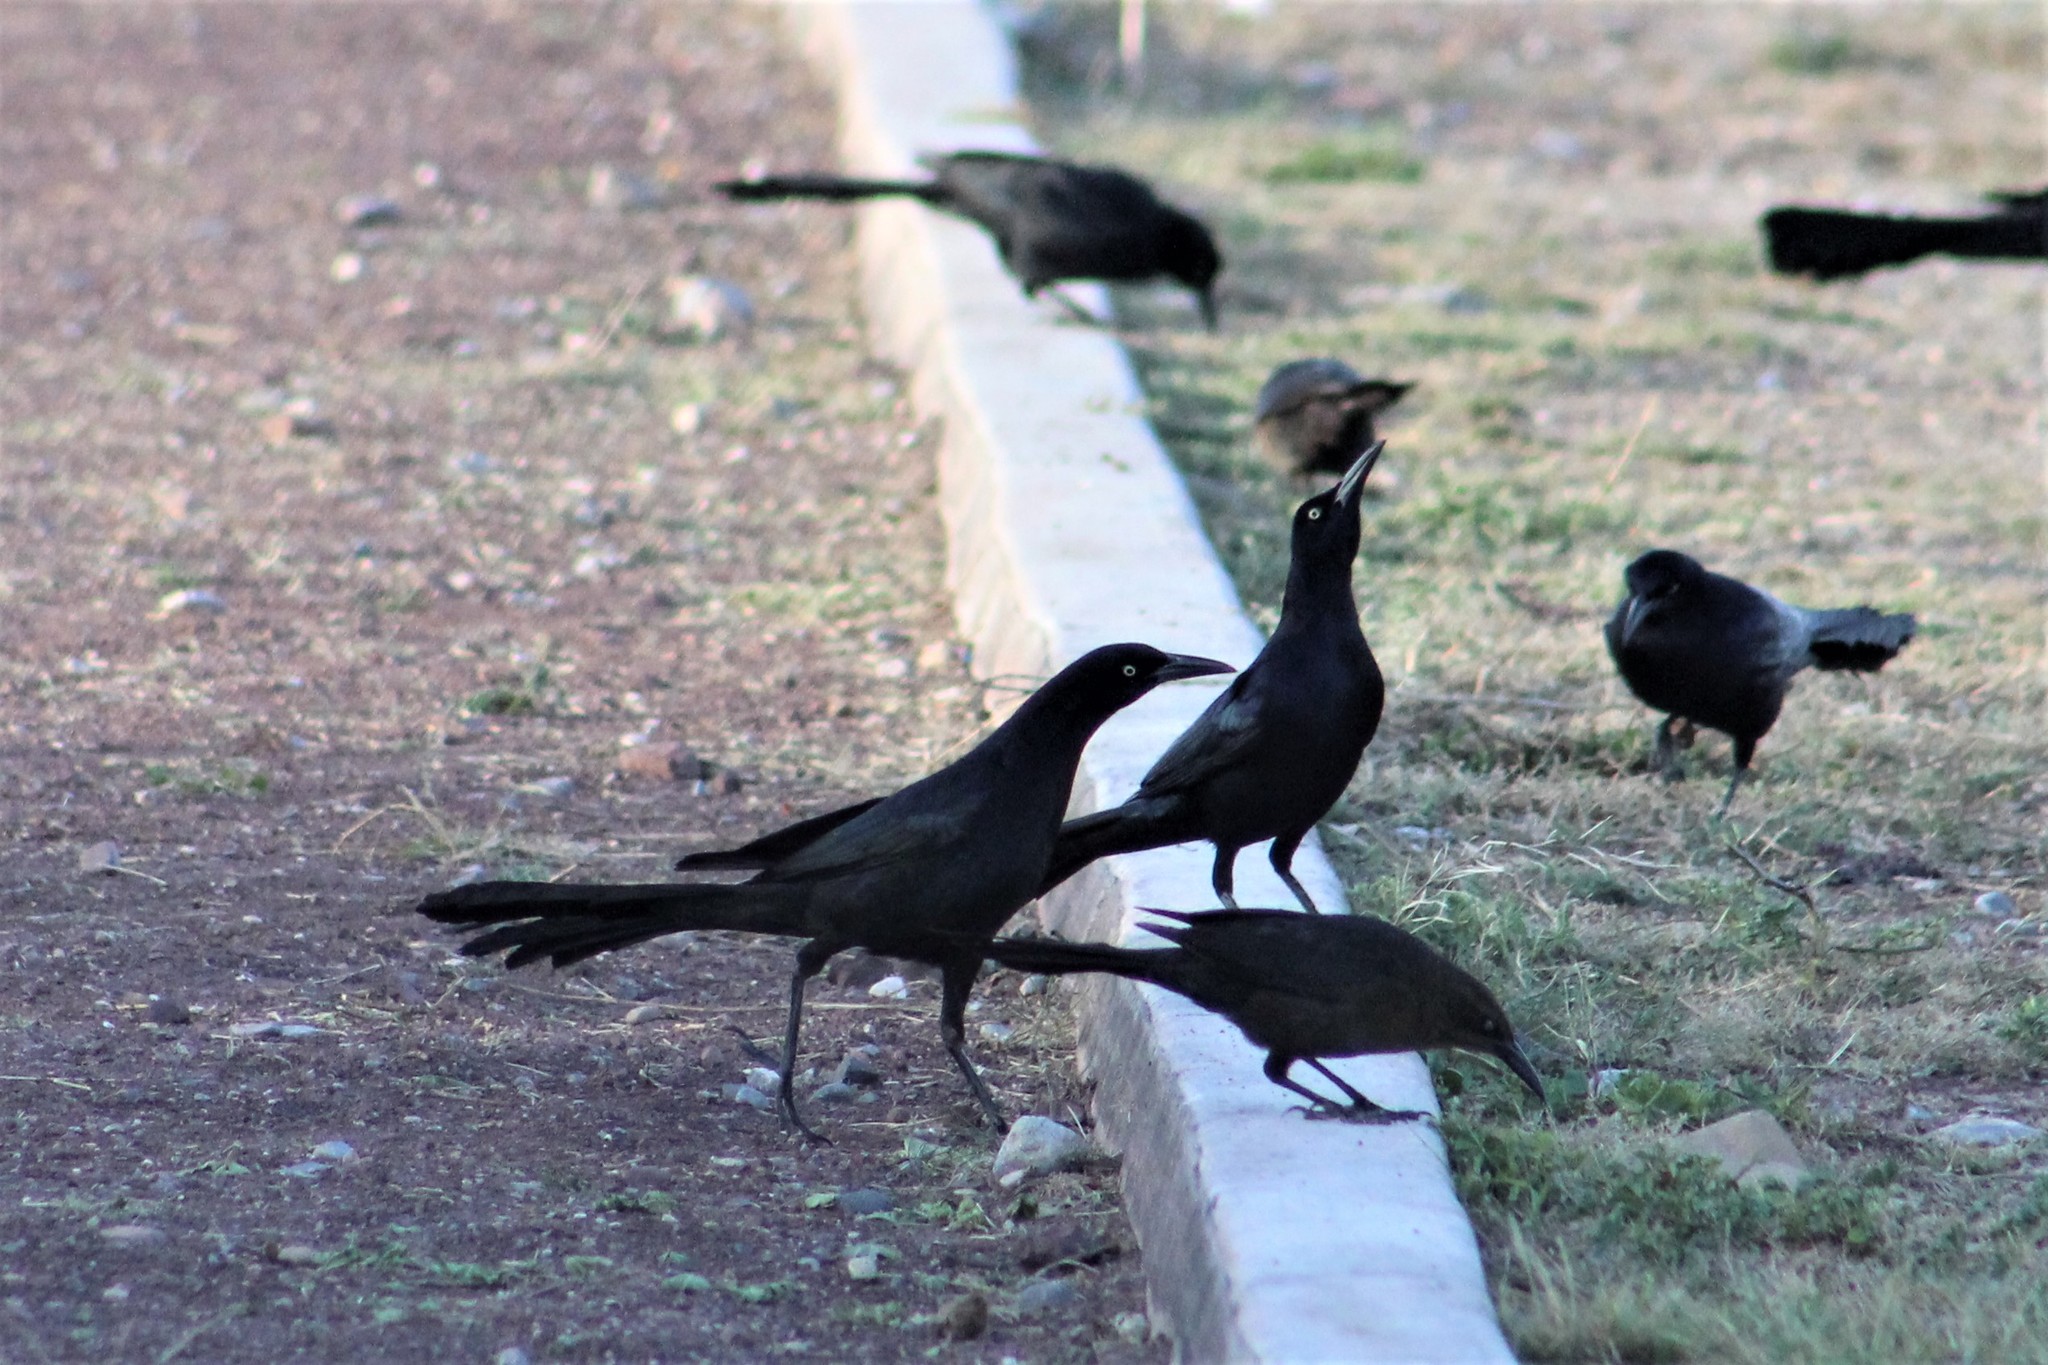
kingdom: Animalia
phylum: Chordata
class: Aves
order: Passeriformes
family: Icteridae
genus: Quiscalus
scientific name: Quiscalus mexicanus
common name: Great-tailed grackle
